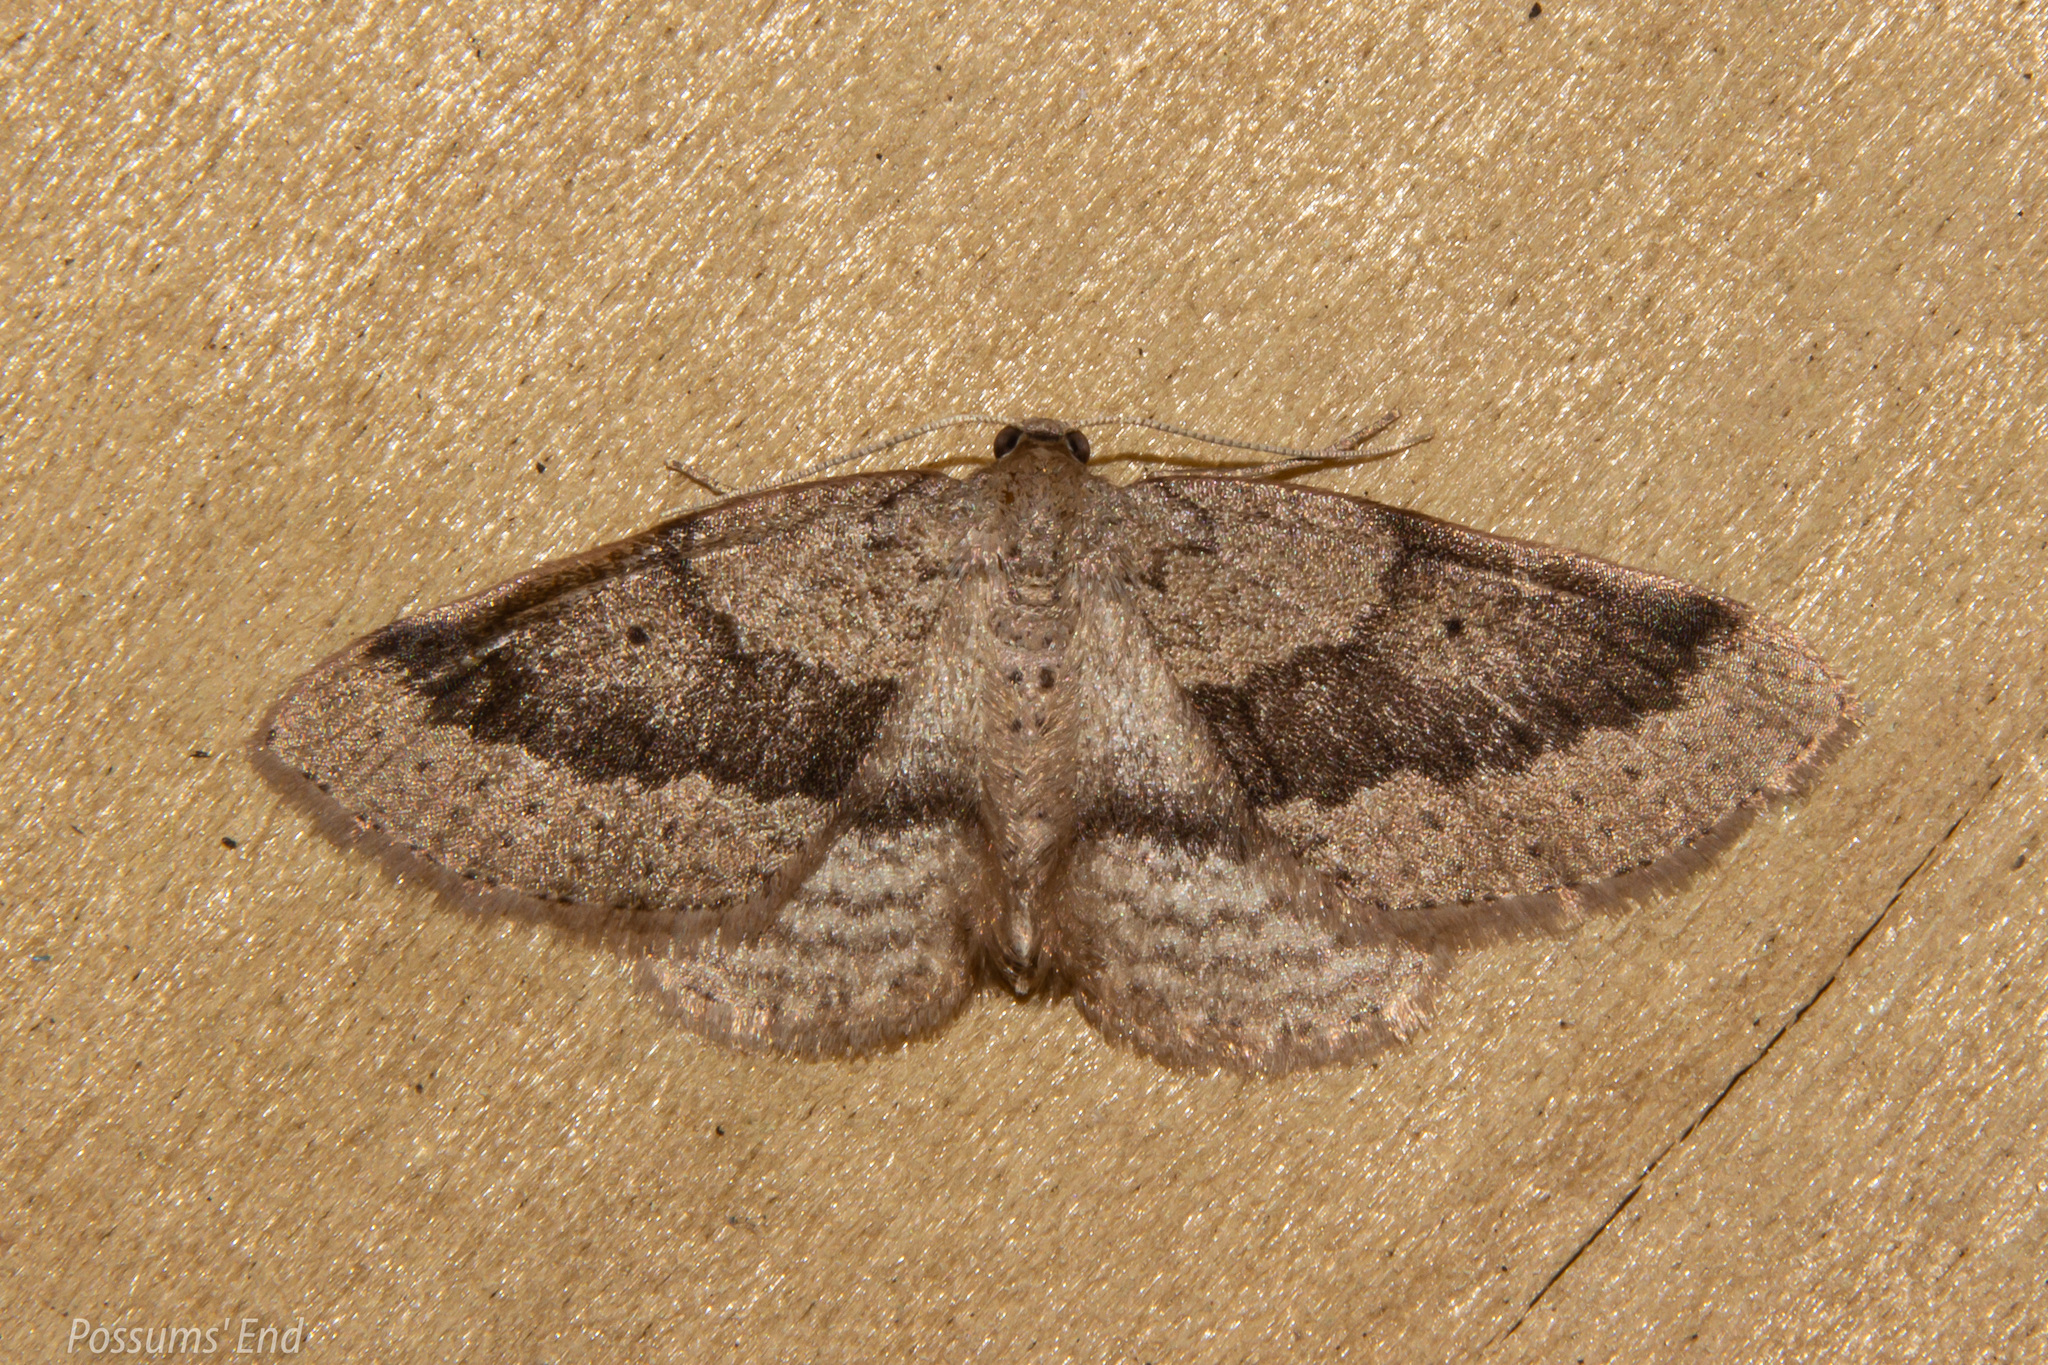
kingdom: Animalia
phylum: Arthropoda
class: Insecta
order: Lepidoptera
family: Geometridae
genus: Poecilasthena
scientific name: Poecilasthena schistaria
